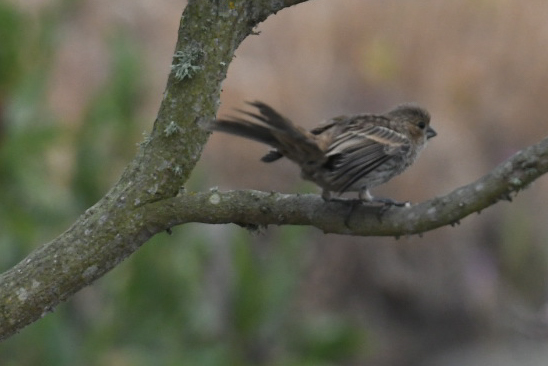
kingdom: Animalia
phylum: Chordata
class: Aves
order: Passeriformes
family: Fringillidae
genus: Haemorhous
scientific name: Haemorhous mexicanus
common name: House finch
